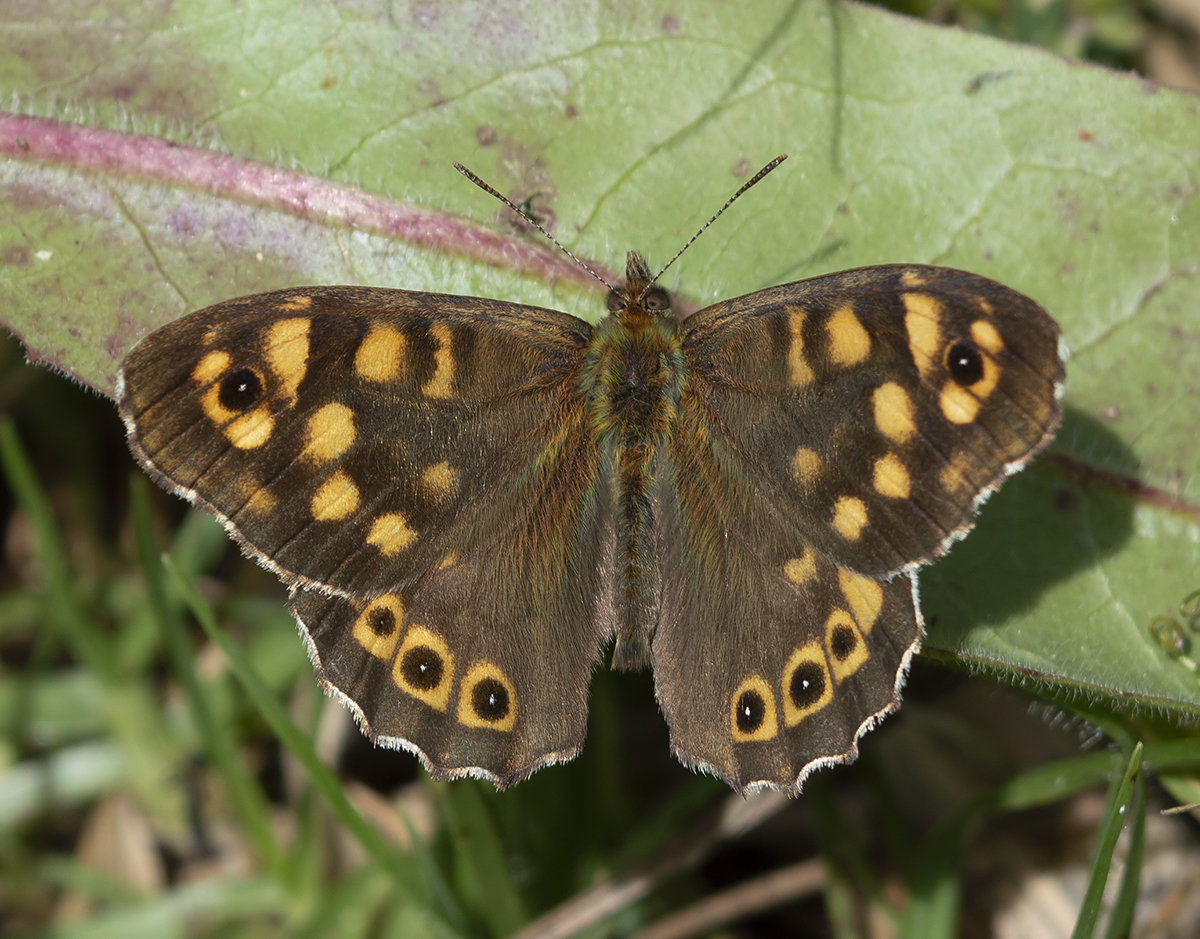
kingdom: Animalia
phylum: Arthropoda
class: Insecta
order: Lepidoptera
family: Nymphalidae
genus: Pararge
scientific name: Pararge aegeria
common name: Speckled wood
